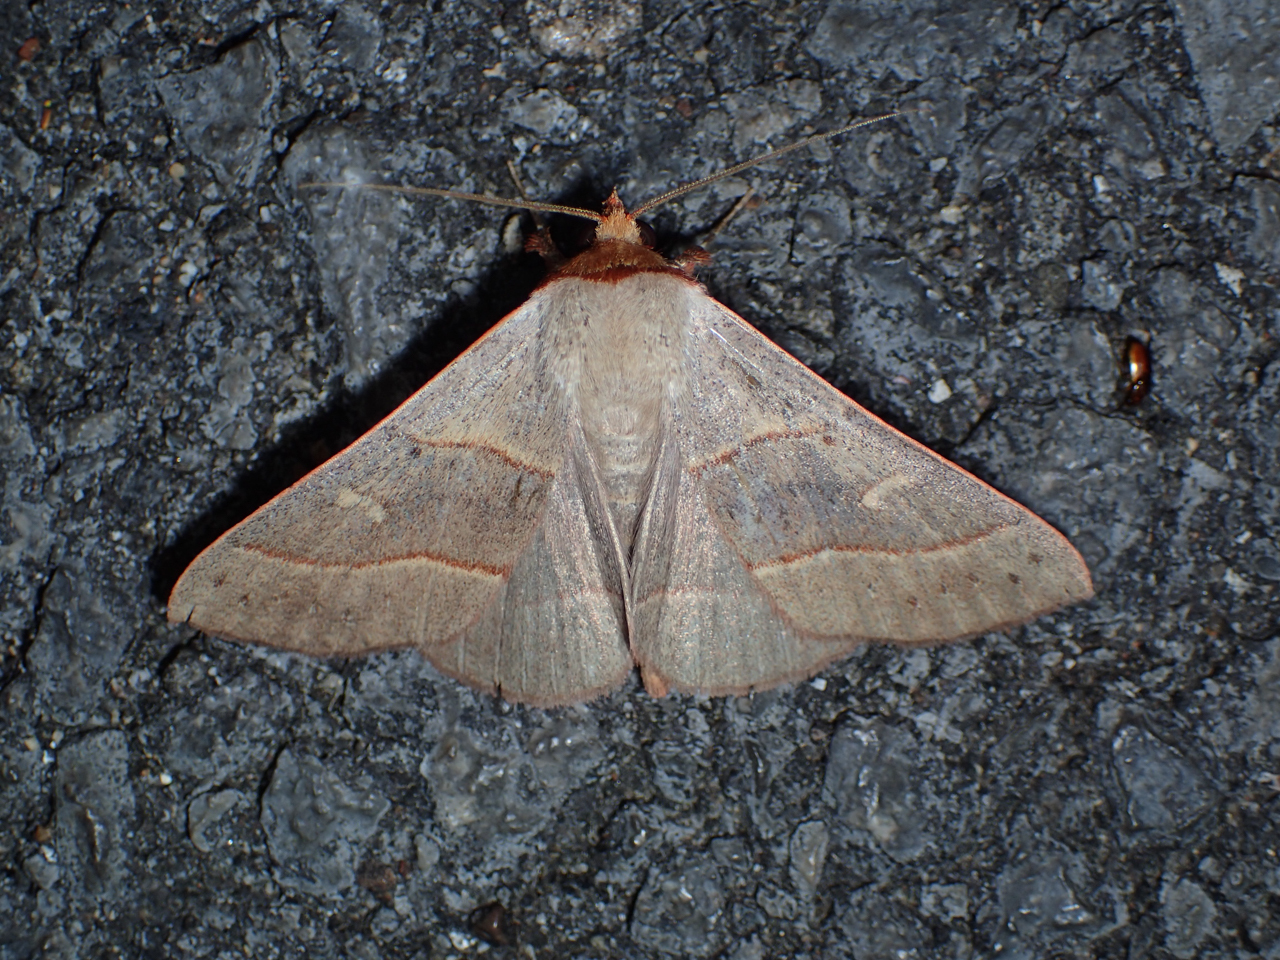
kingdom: Animalia
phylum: Arthropoda
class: Insecta
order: Lepidoptera
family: Erebidae
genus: Panopoda
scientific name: Panopoda rufimargo
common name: Red-lined panopoda moth
